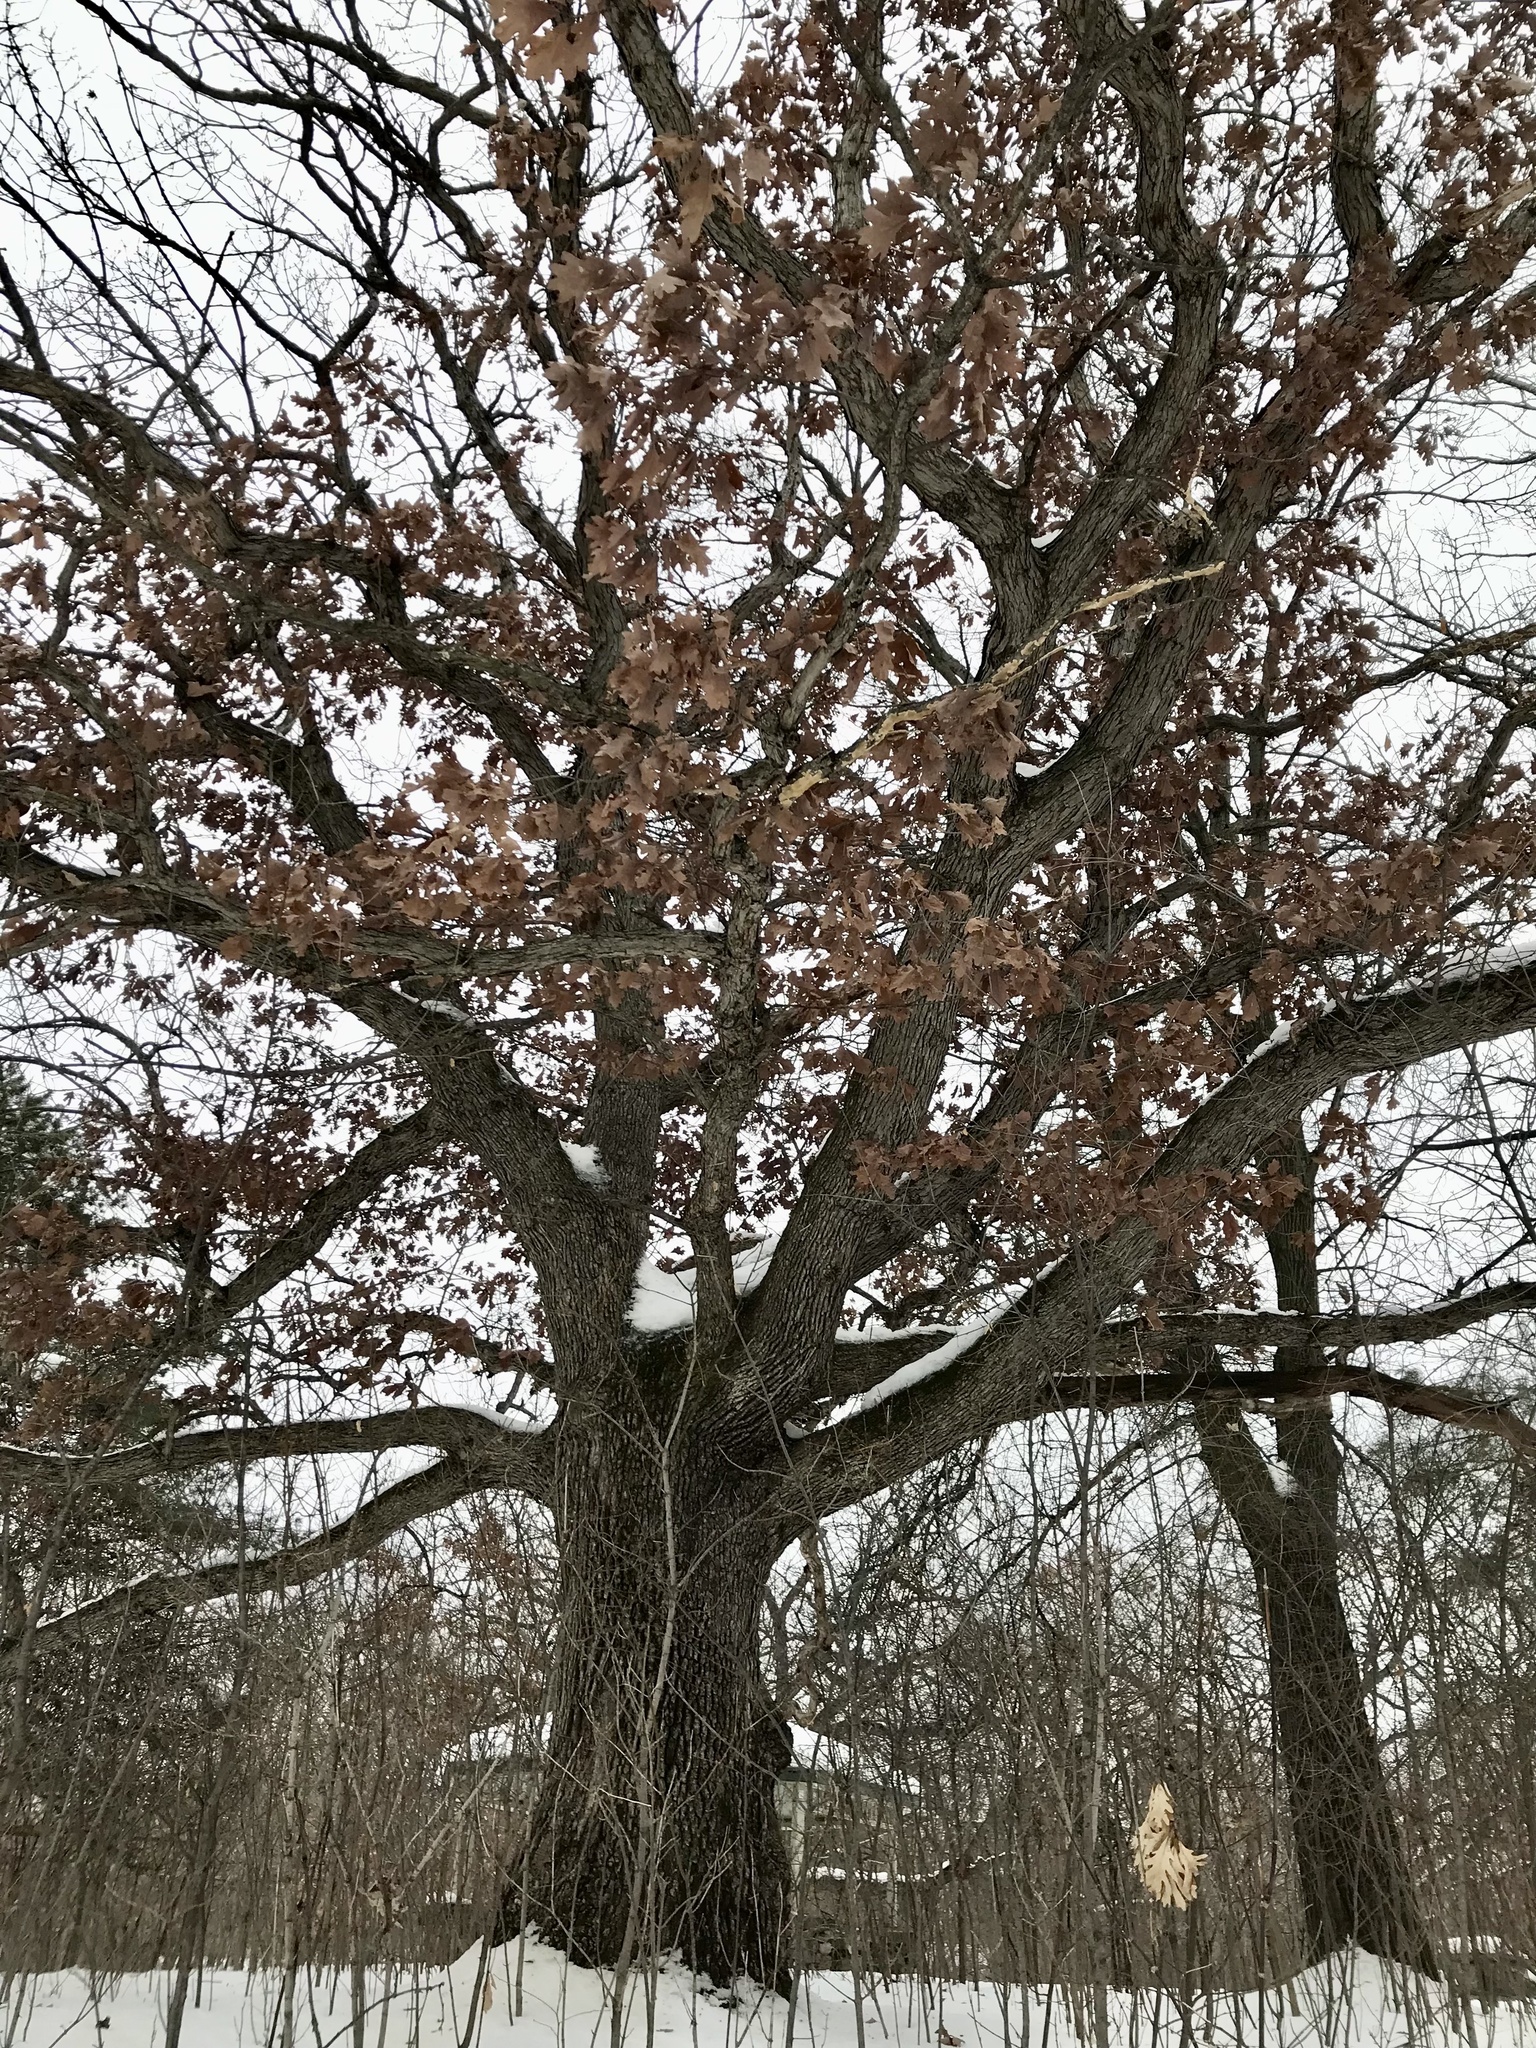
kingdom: Plantae
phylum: Tracheophyta
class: Magnoliopsida
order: Fagales
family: Fagaceae
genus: Quercus
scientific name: Quercus alba
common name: White oak
